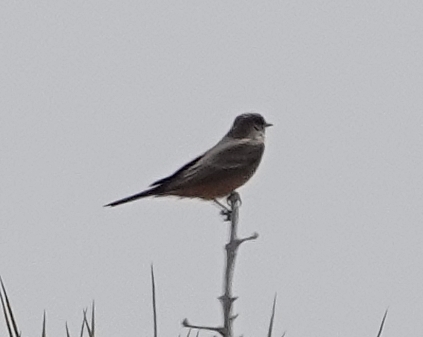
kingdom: Animalia
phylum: Chordata
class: Aves
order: Passeriformes
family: Tyrannidae
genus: Sayornis
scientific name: Sayornis saya
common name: Say's phoebe
